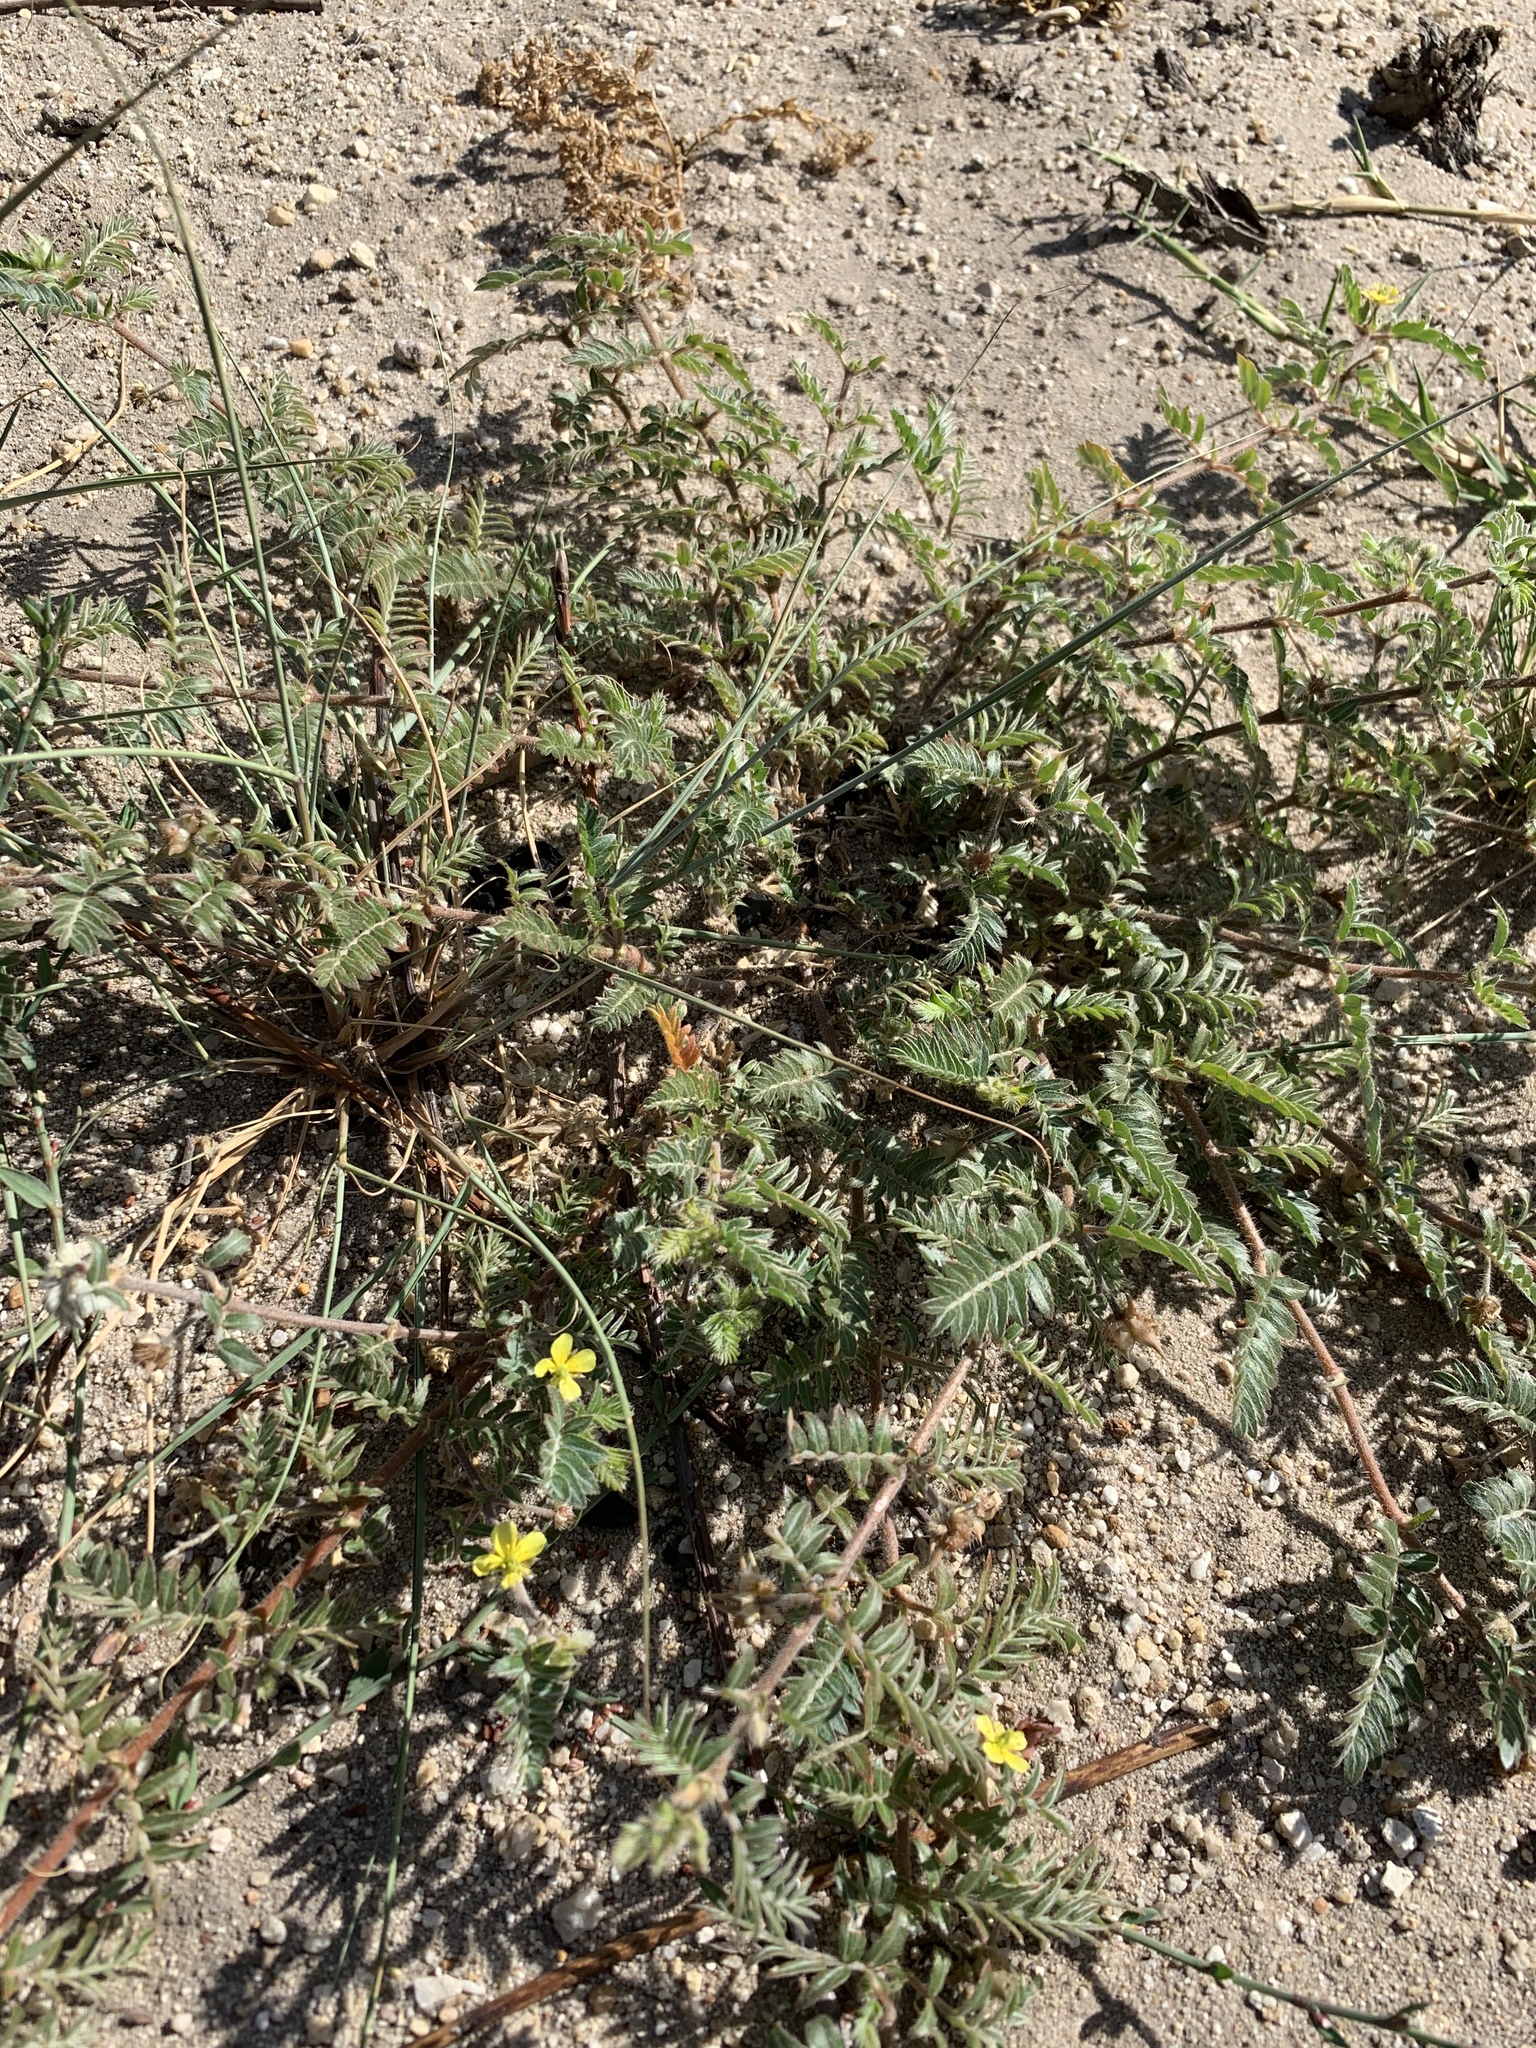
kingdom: Plantae
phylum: Tracheophyta
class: Magnoliopsida
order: Zygophyllales
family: Zygophyllaceae
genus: Tribulus
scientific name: Tribulus terrestris
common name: Puncturevine
